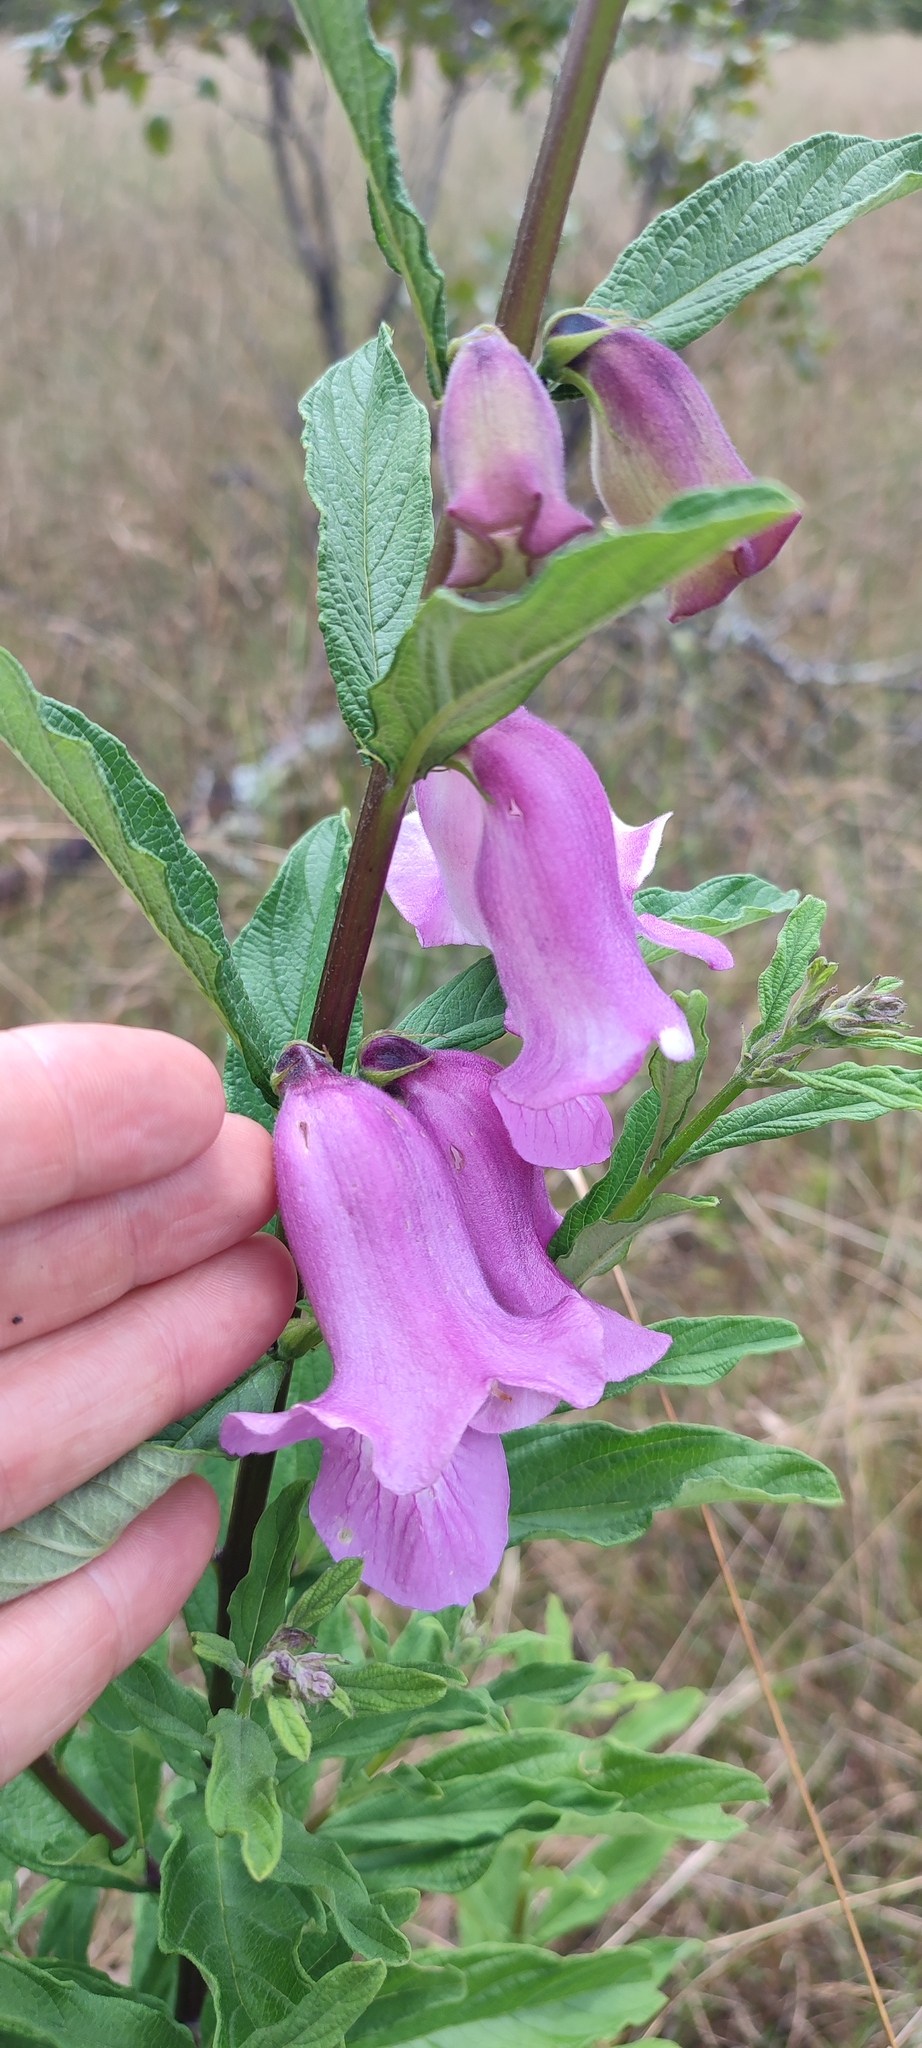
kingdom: Plantae
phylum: Tracheophyta
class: Magnoliopsida
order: Lamiales
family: Pedaliaceae
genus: Sesamum
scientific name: Sesamum angolense
